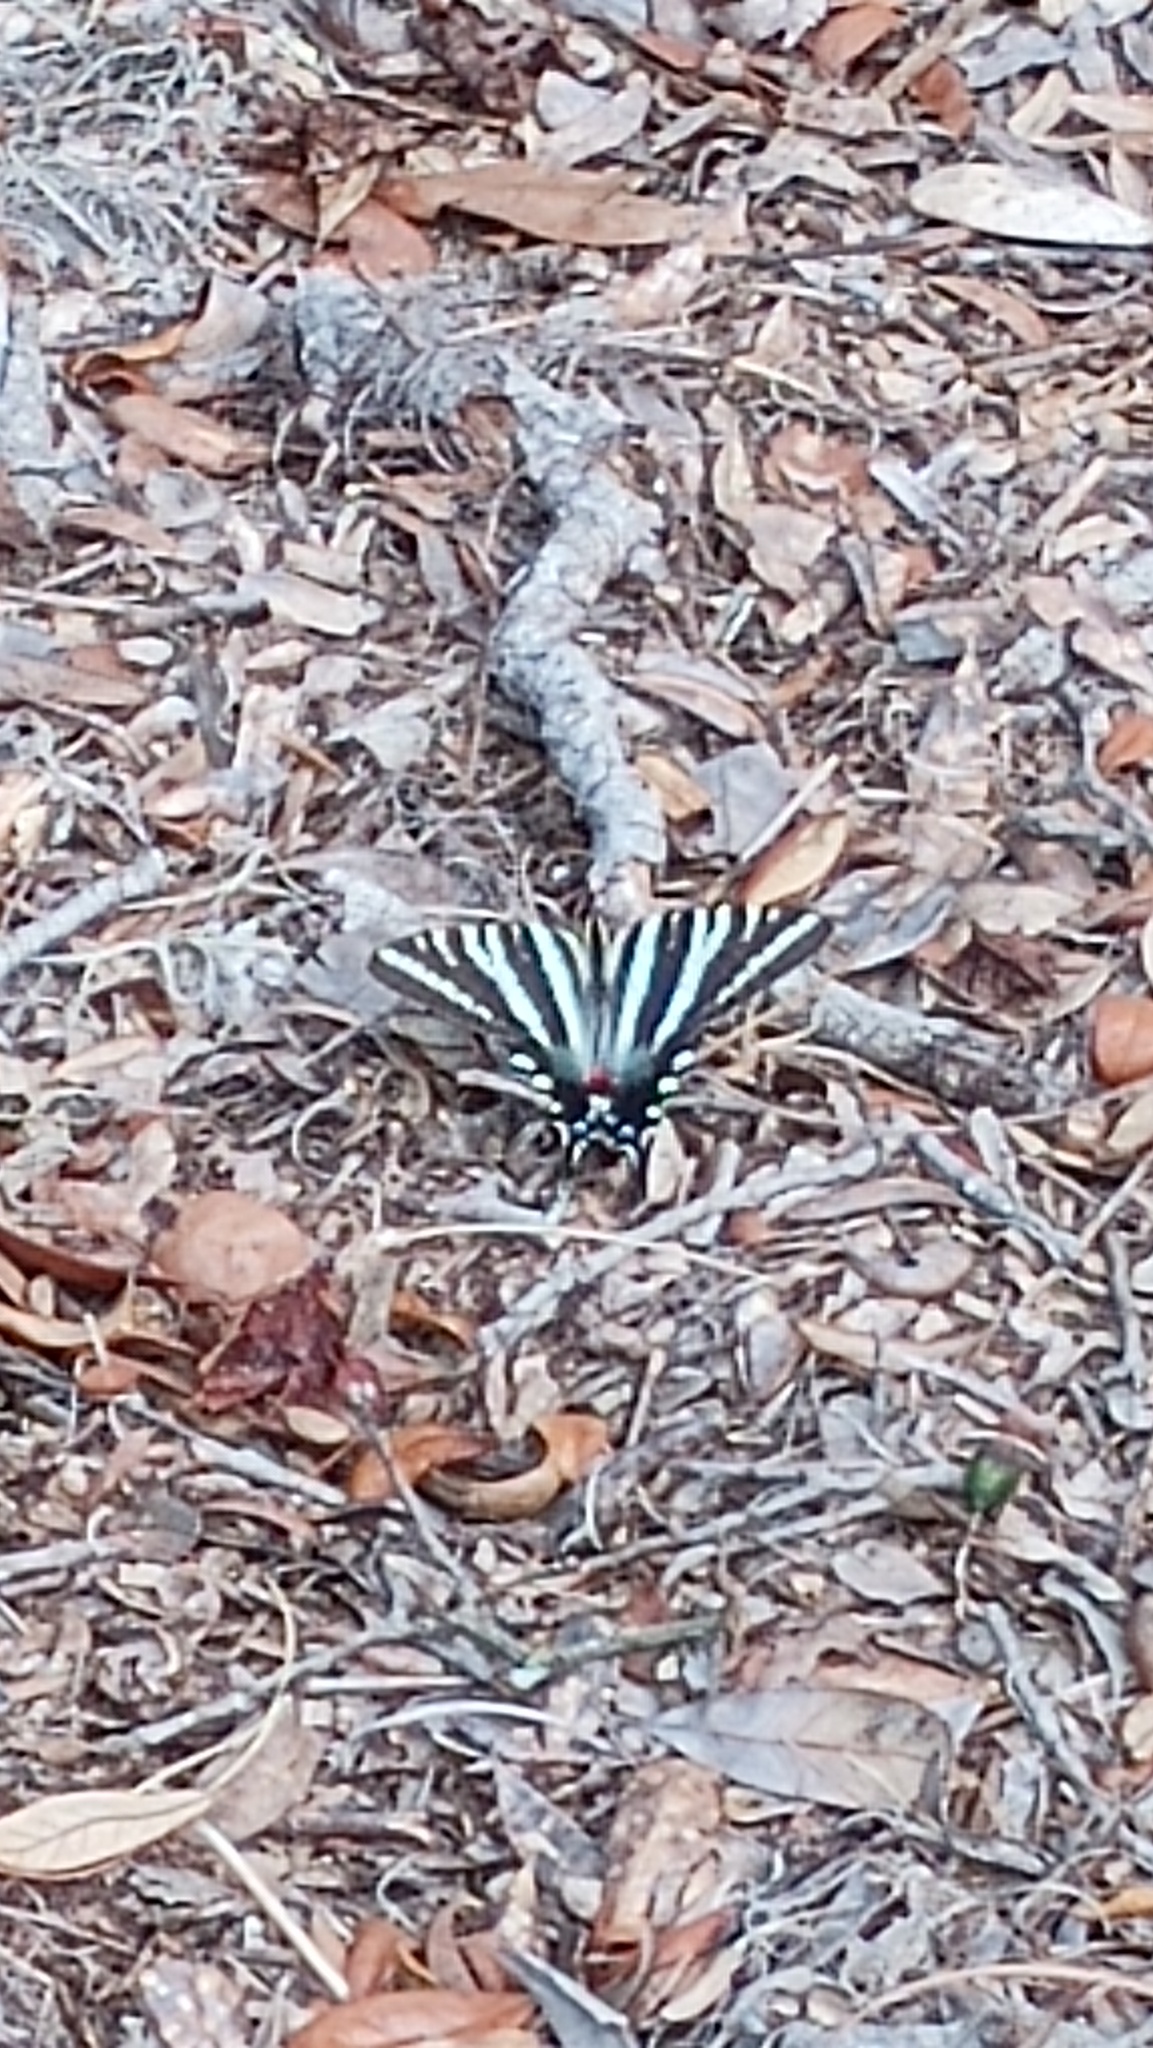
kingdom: Animalia
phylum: Arthropoda
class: Insecta
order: Lepidoptera
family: Papilionidae
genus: Protographium
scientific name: Protographium marcellus
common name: Zebra swallowtail
